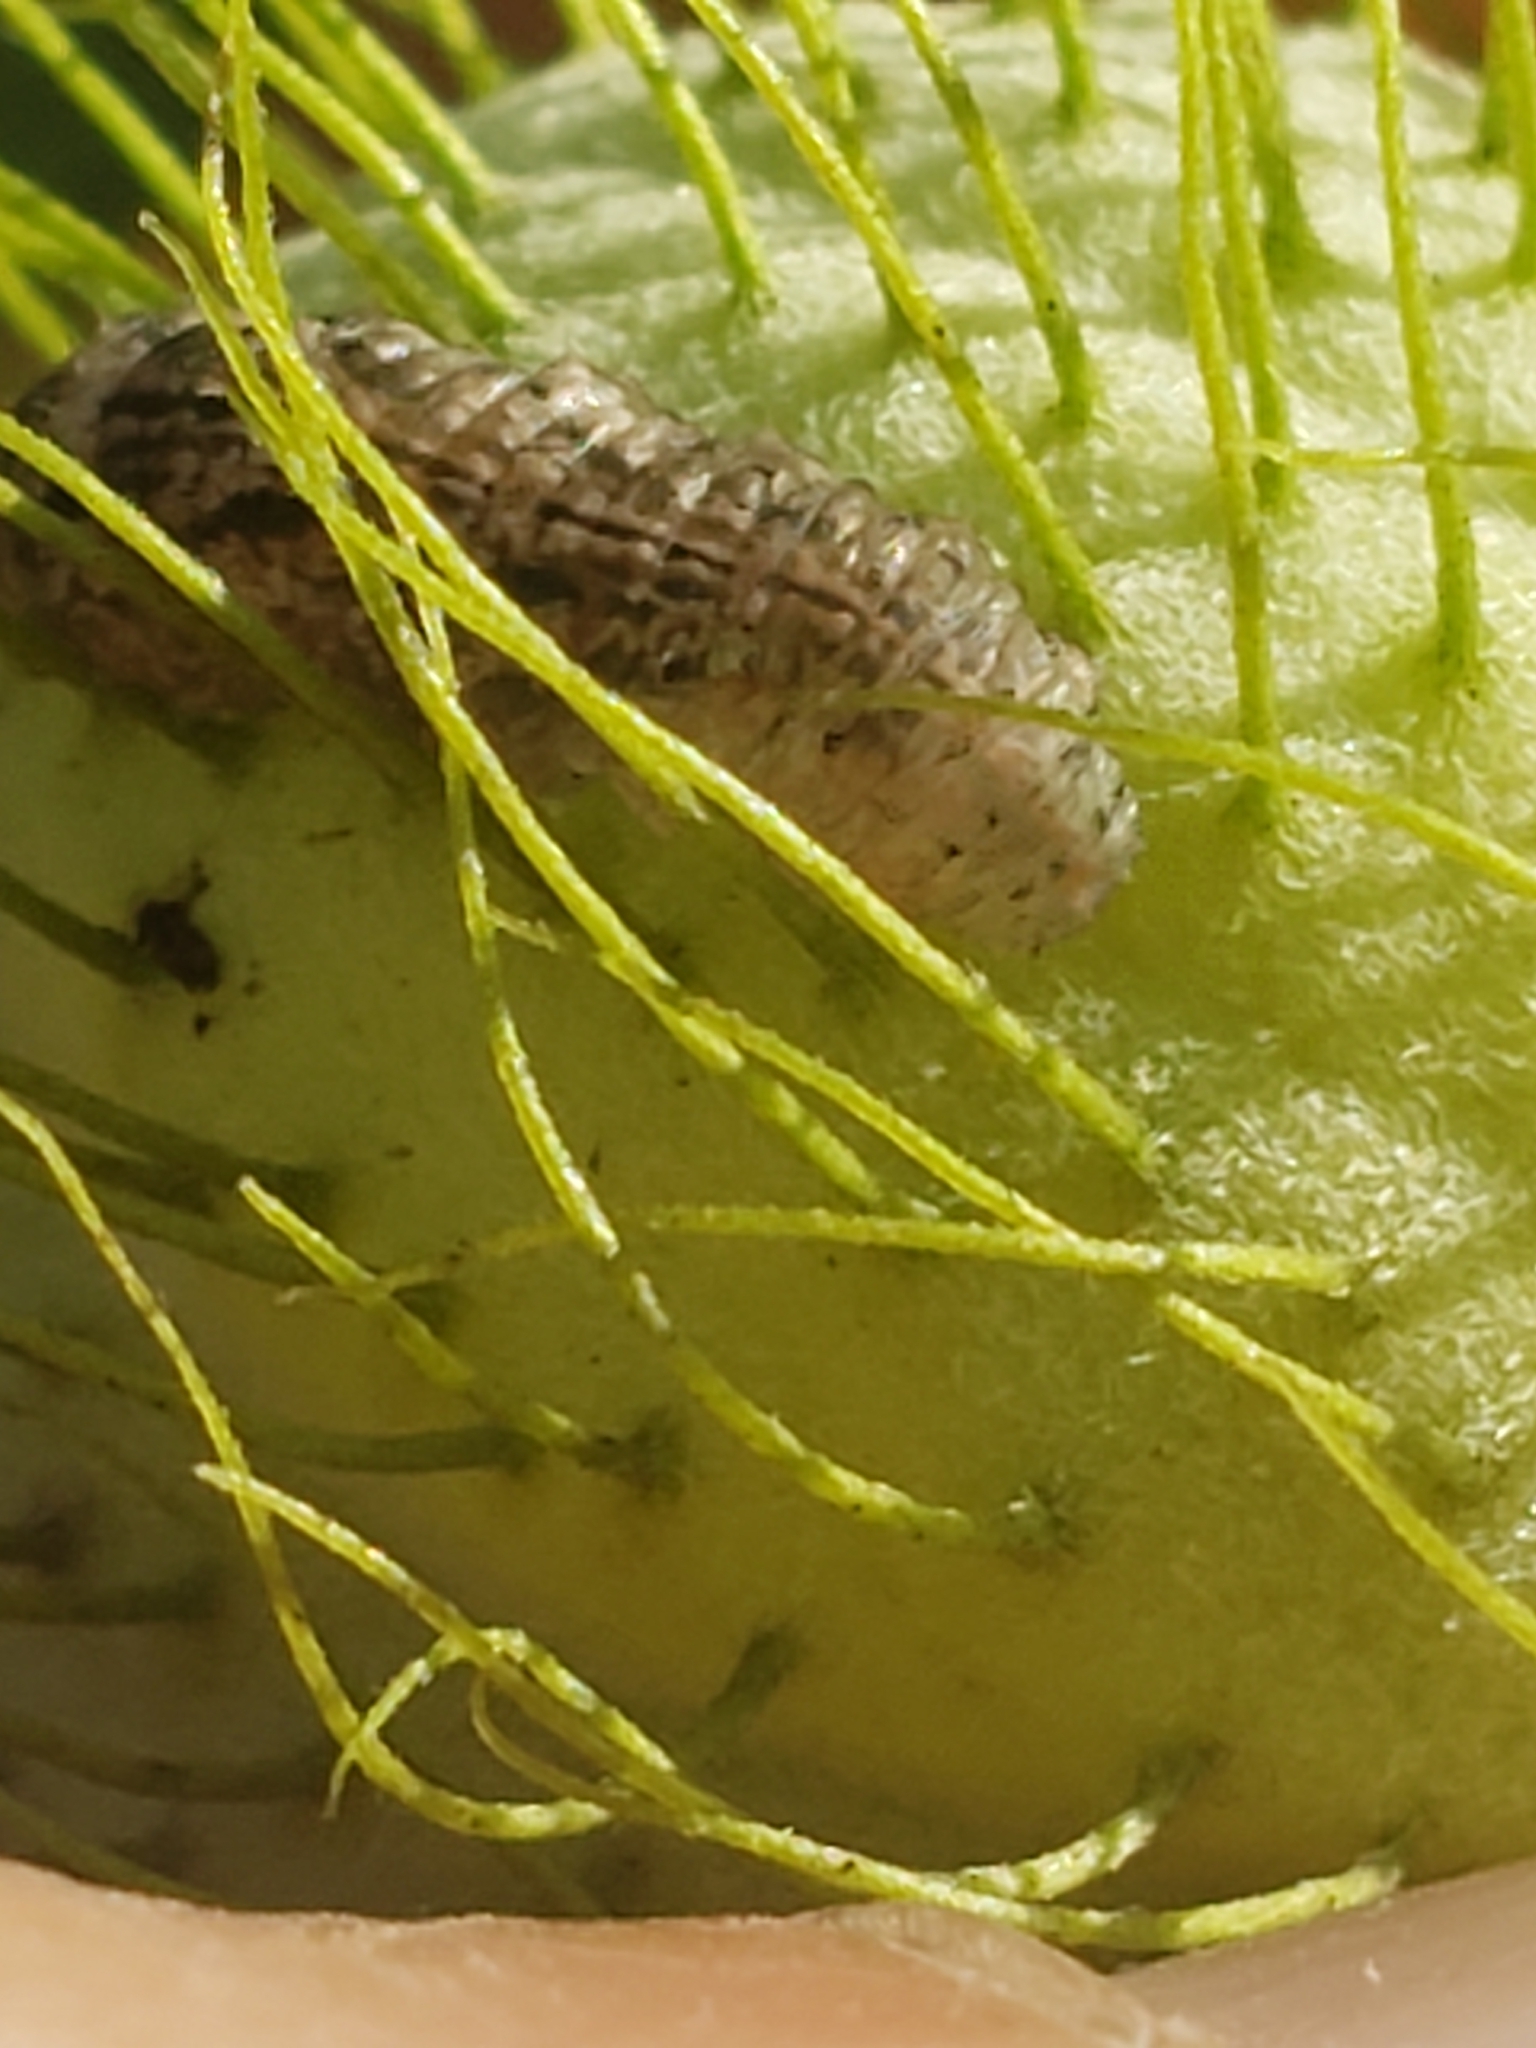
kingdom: Animalia
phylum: Arthropoda
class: Insecta
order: Diptera
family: Syrphidae
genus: Eupeodes
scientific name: Eupeodes americanus
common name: Long-tailed aphideater
